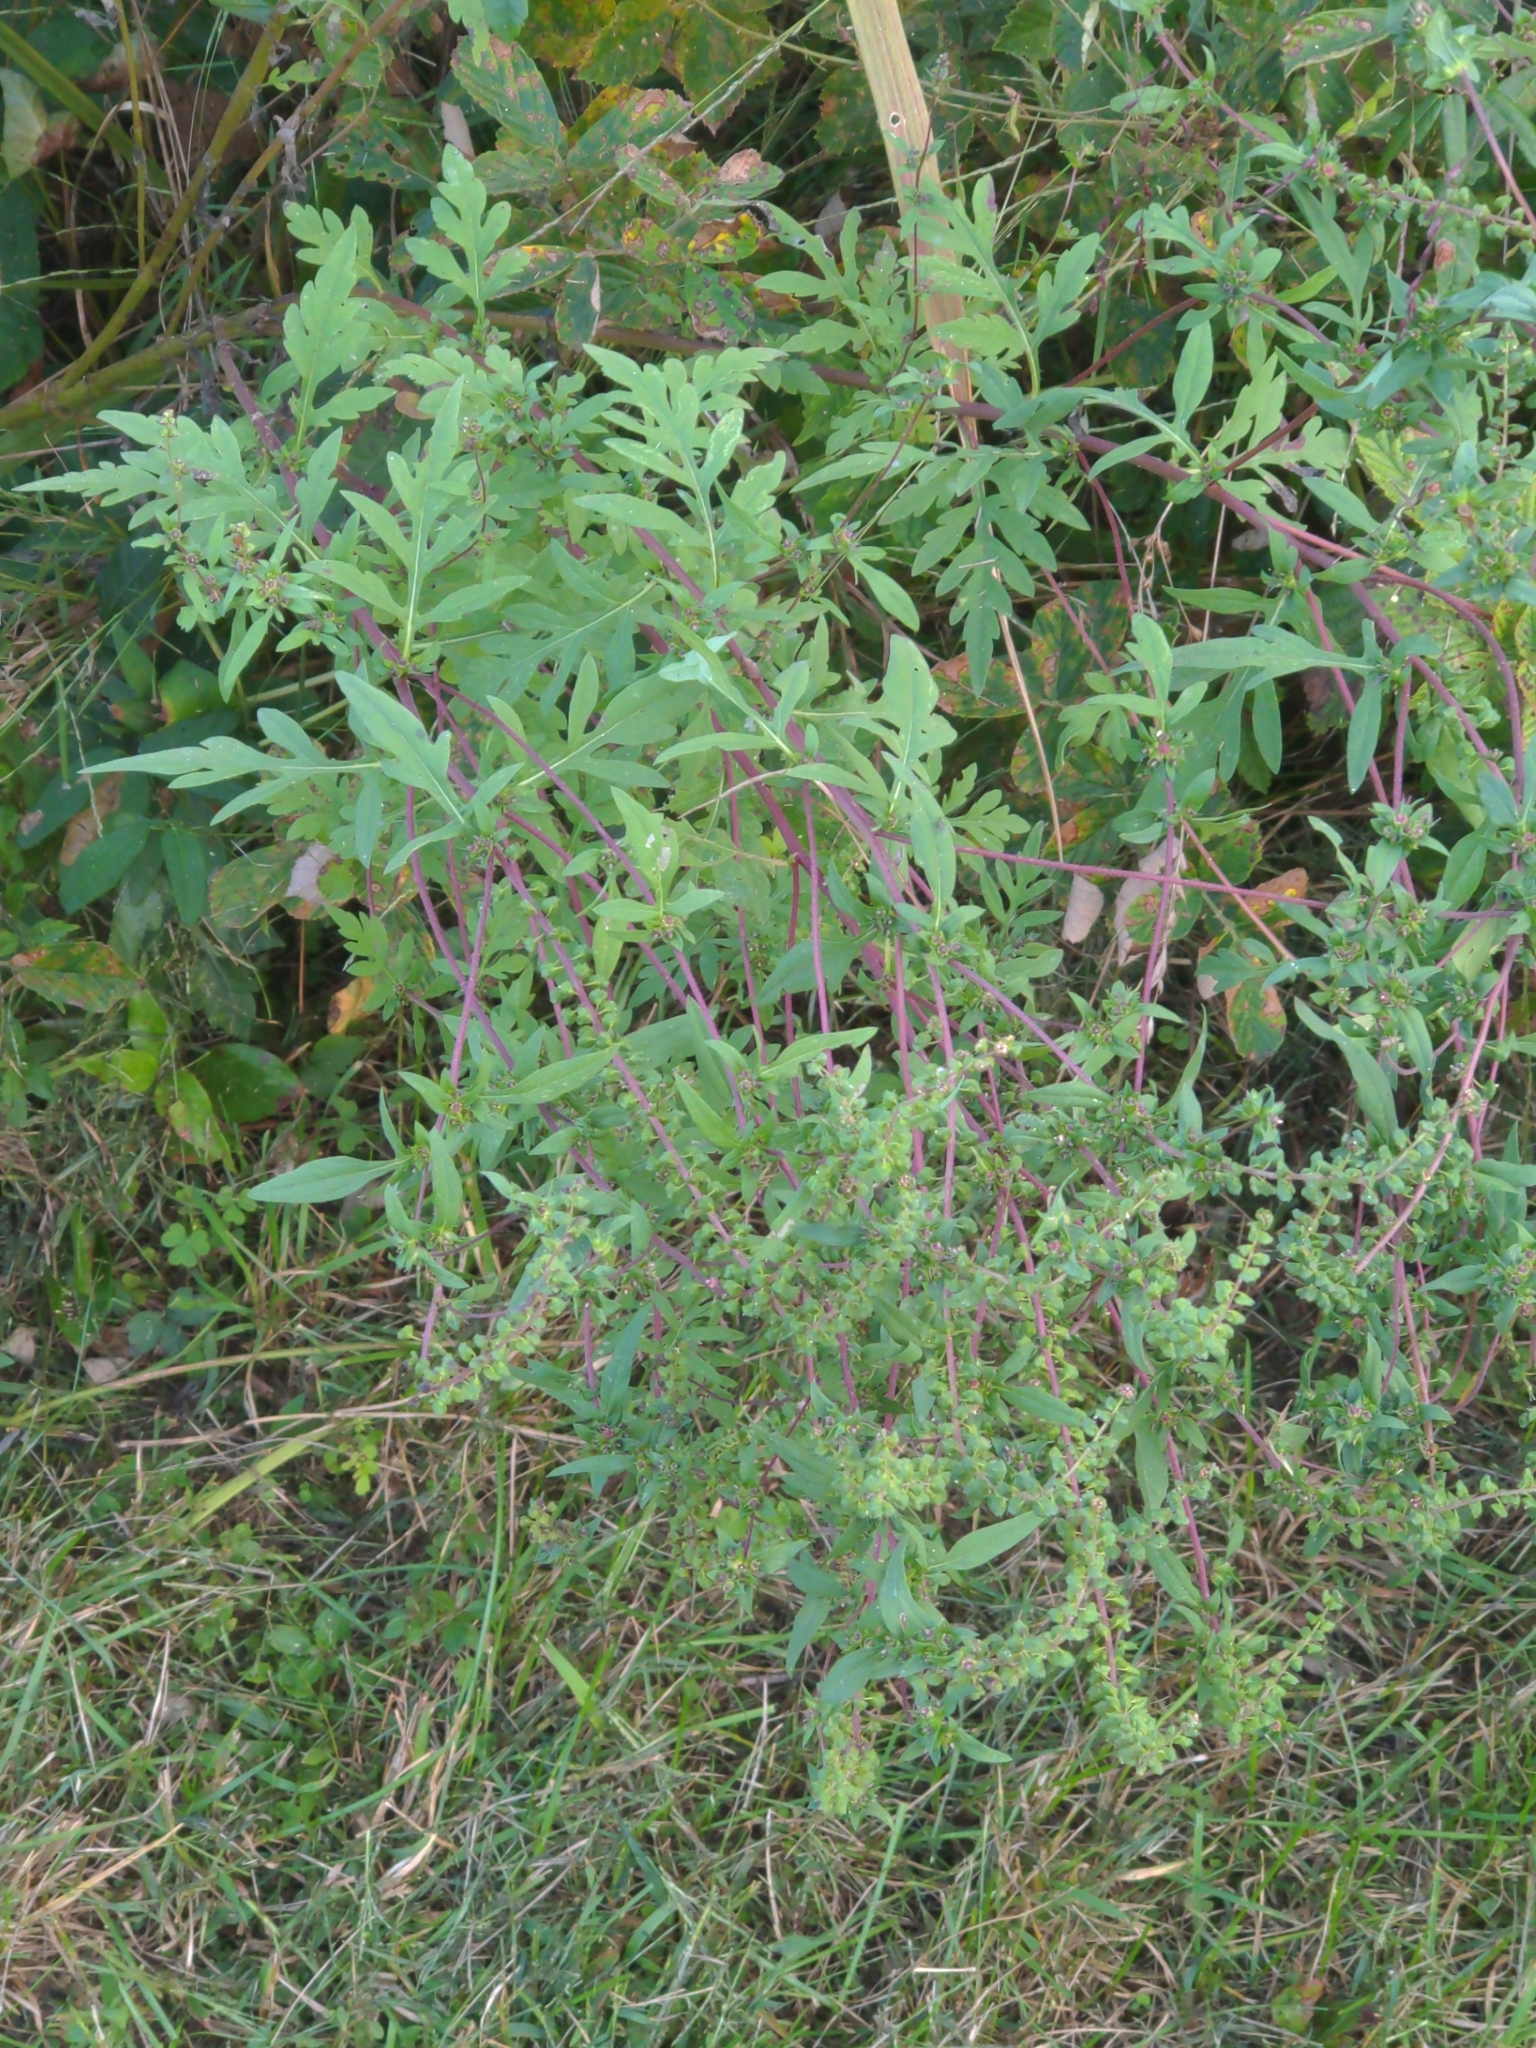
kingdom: Plantae
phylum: Tracheophyta
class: Magnoliopsida
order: Asterales
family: Asteraceae
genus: Ambrosia
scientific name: Ambrosia artemisiifolia
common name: Annual ragweed
